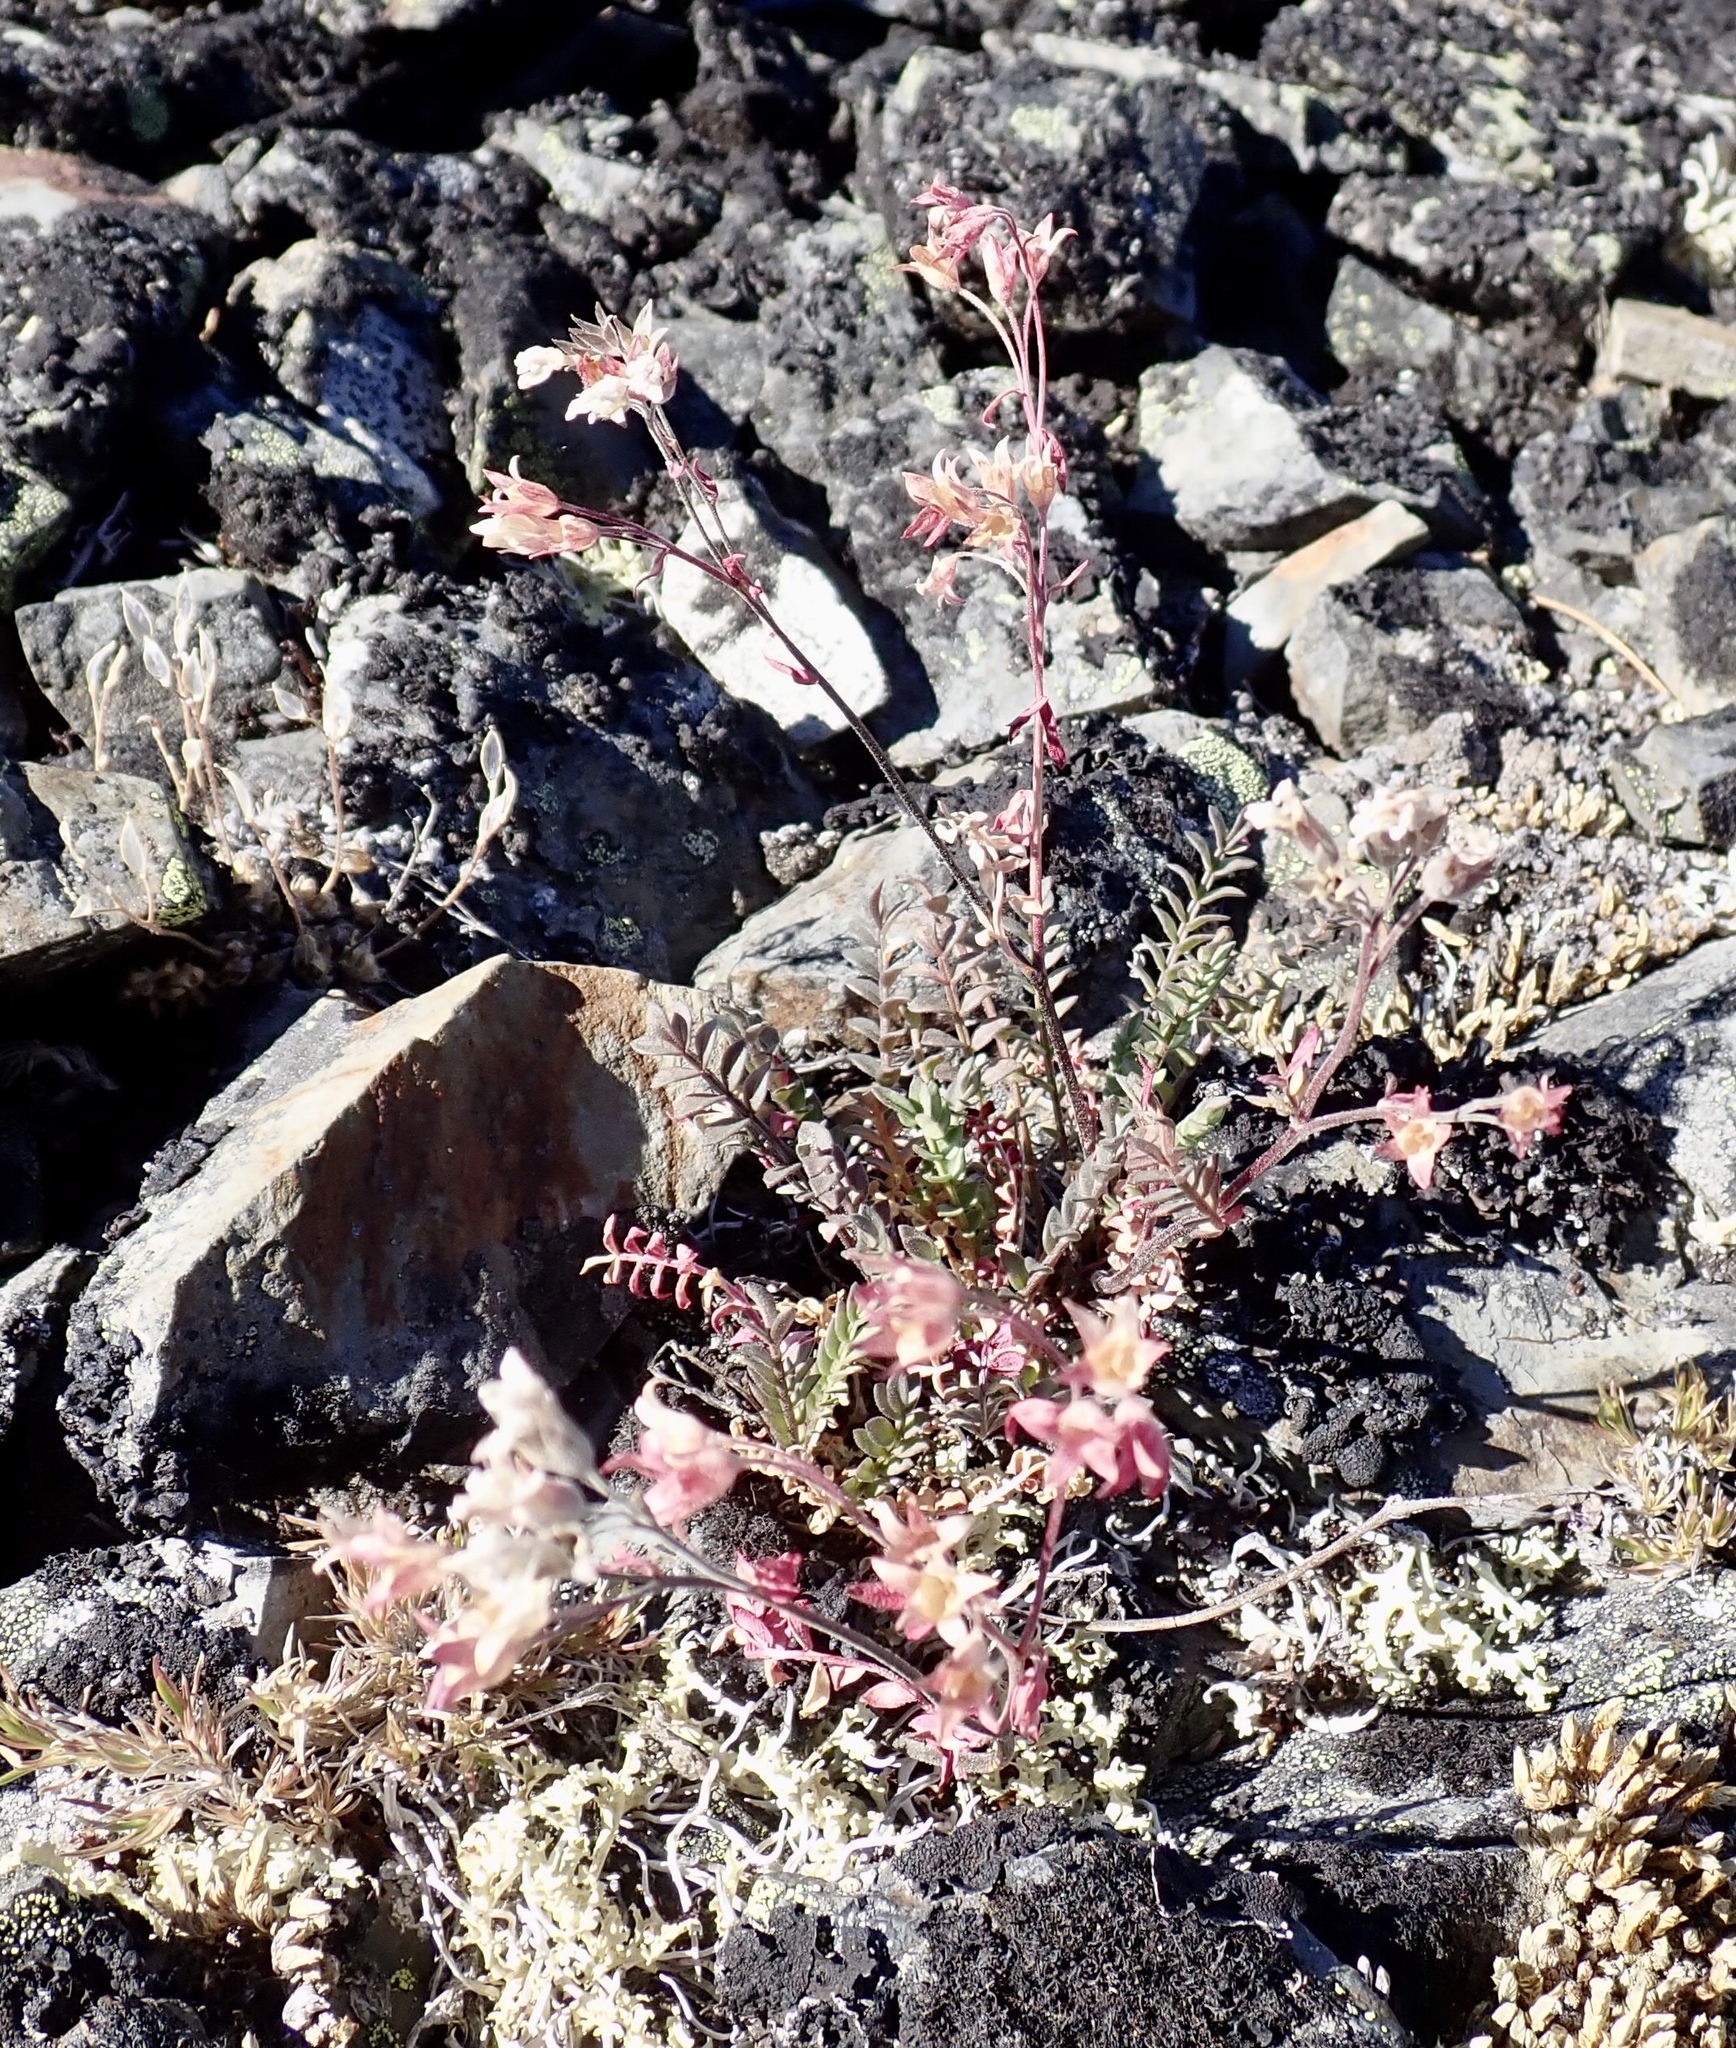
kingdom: Plantae
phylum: Tracheophyta
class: Magnoliopsida
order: Ericales
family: Polemoniaceae
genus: Polemonium
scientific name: Polemonium pulcherrimum
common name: Short jacob's-ladder
